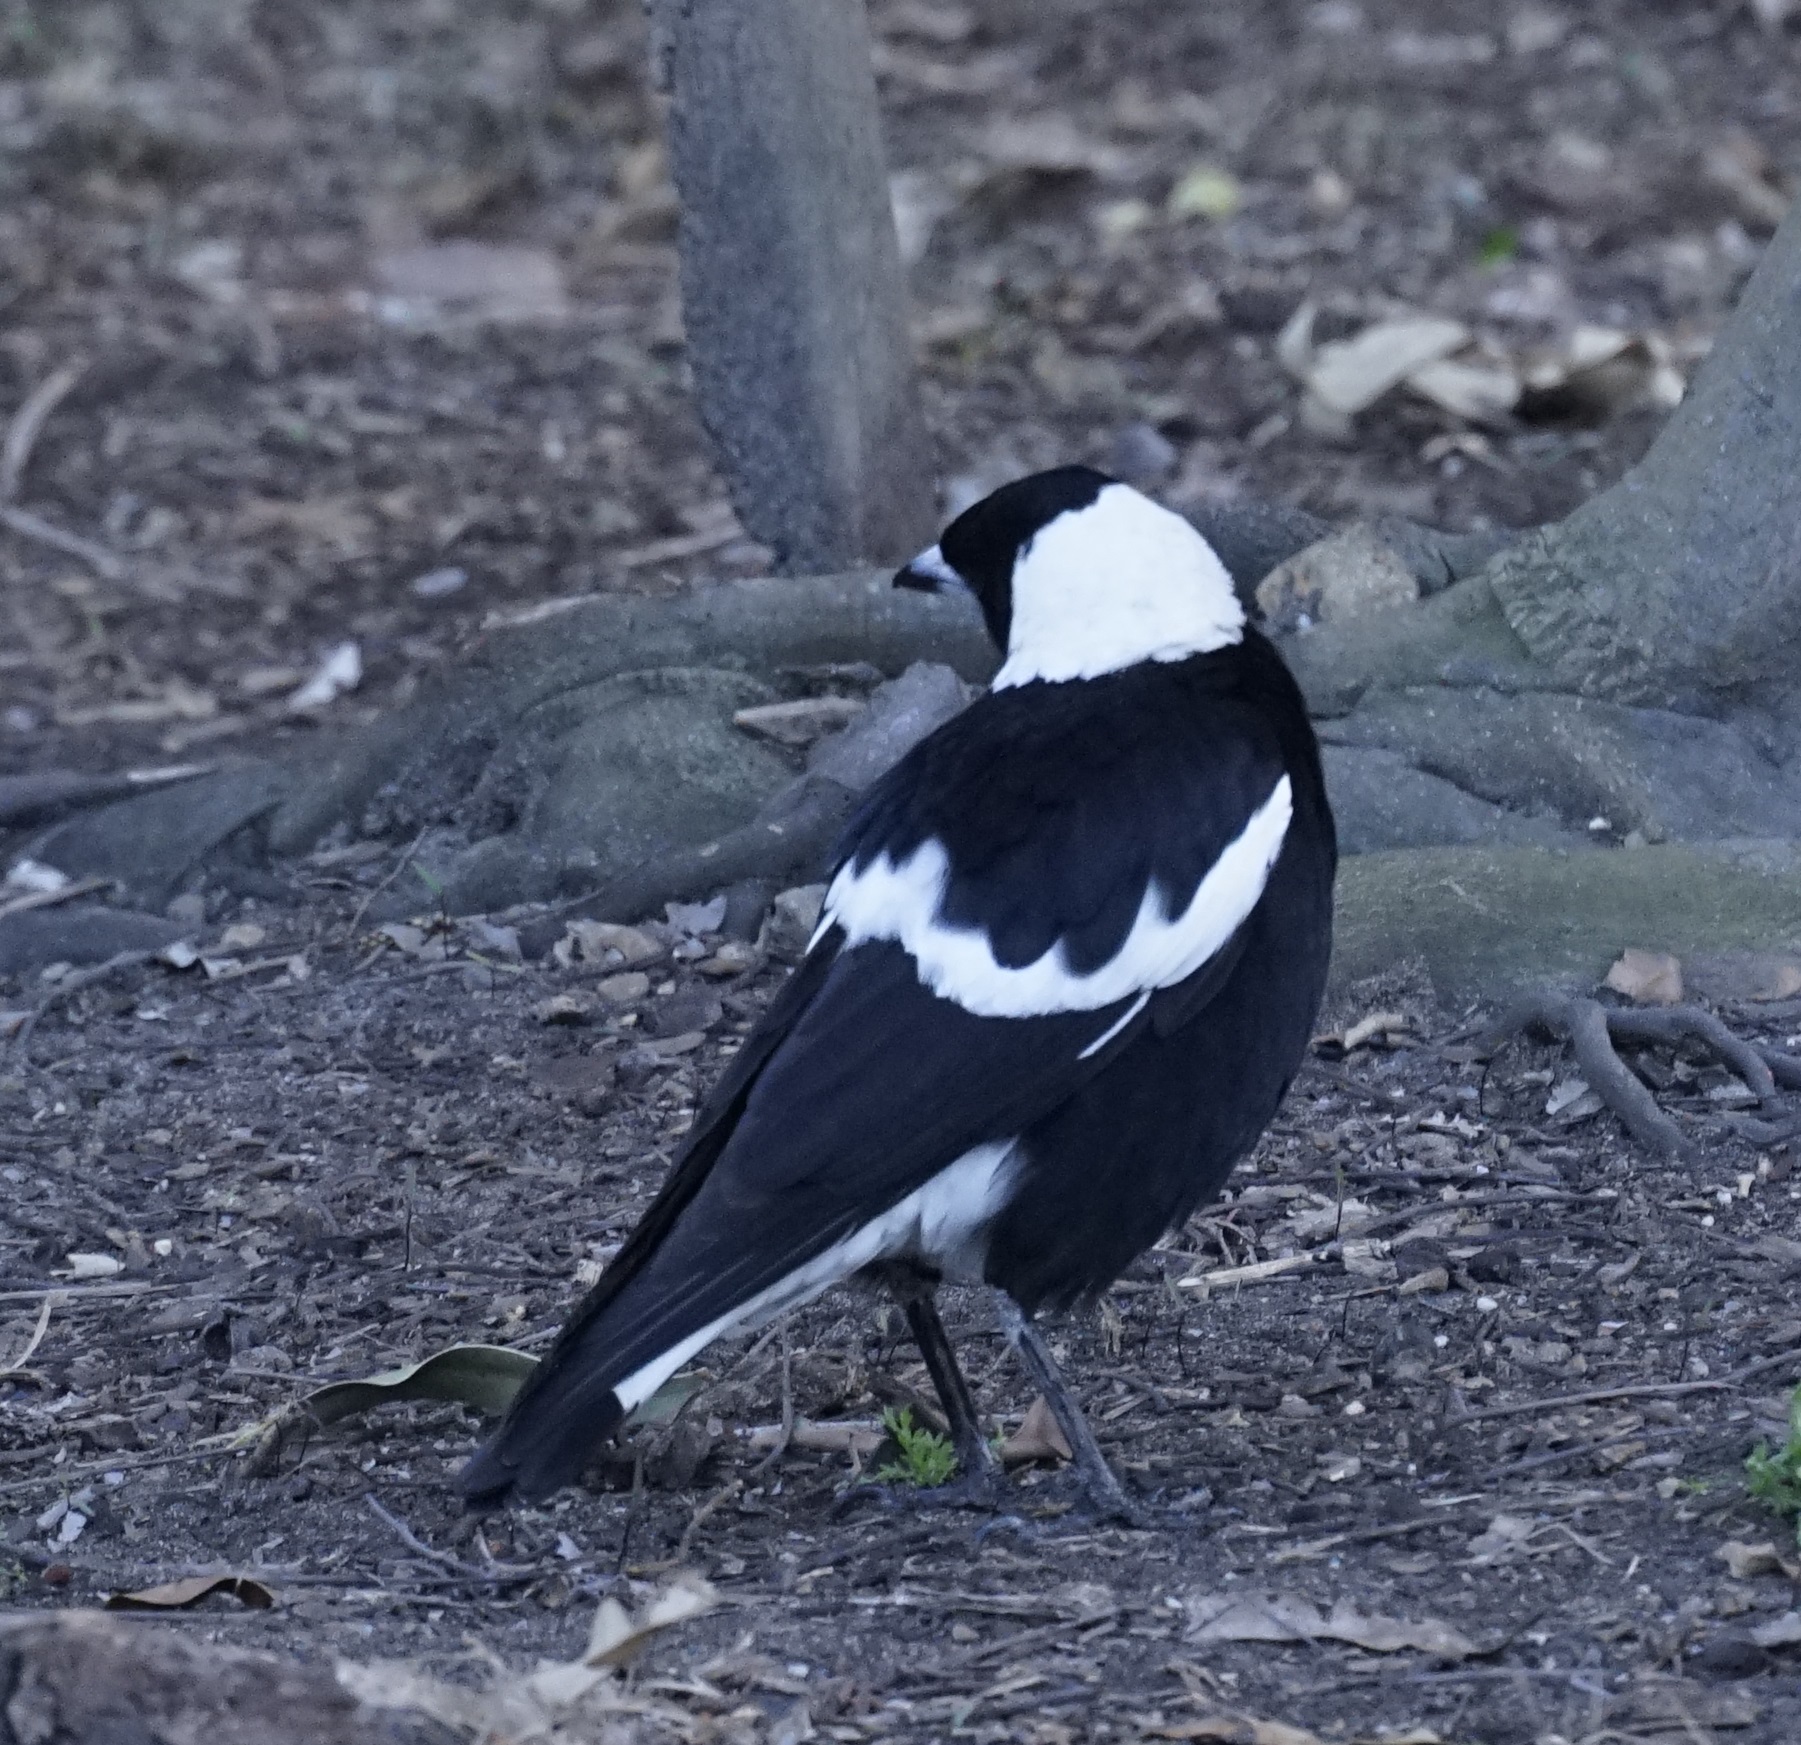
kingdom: Animalia
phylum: Chordata
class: Aves
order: Passeriformes
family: Cracticidae
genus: Gymnorhina
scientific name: Gymnorhina tibicen
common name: Australian magpie
